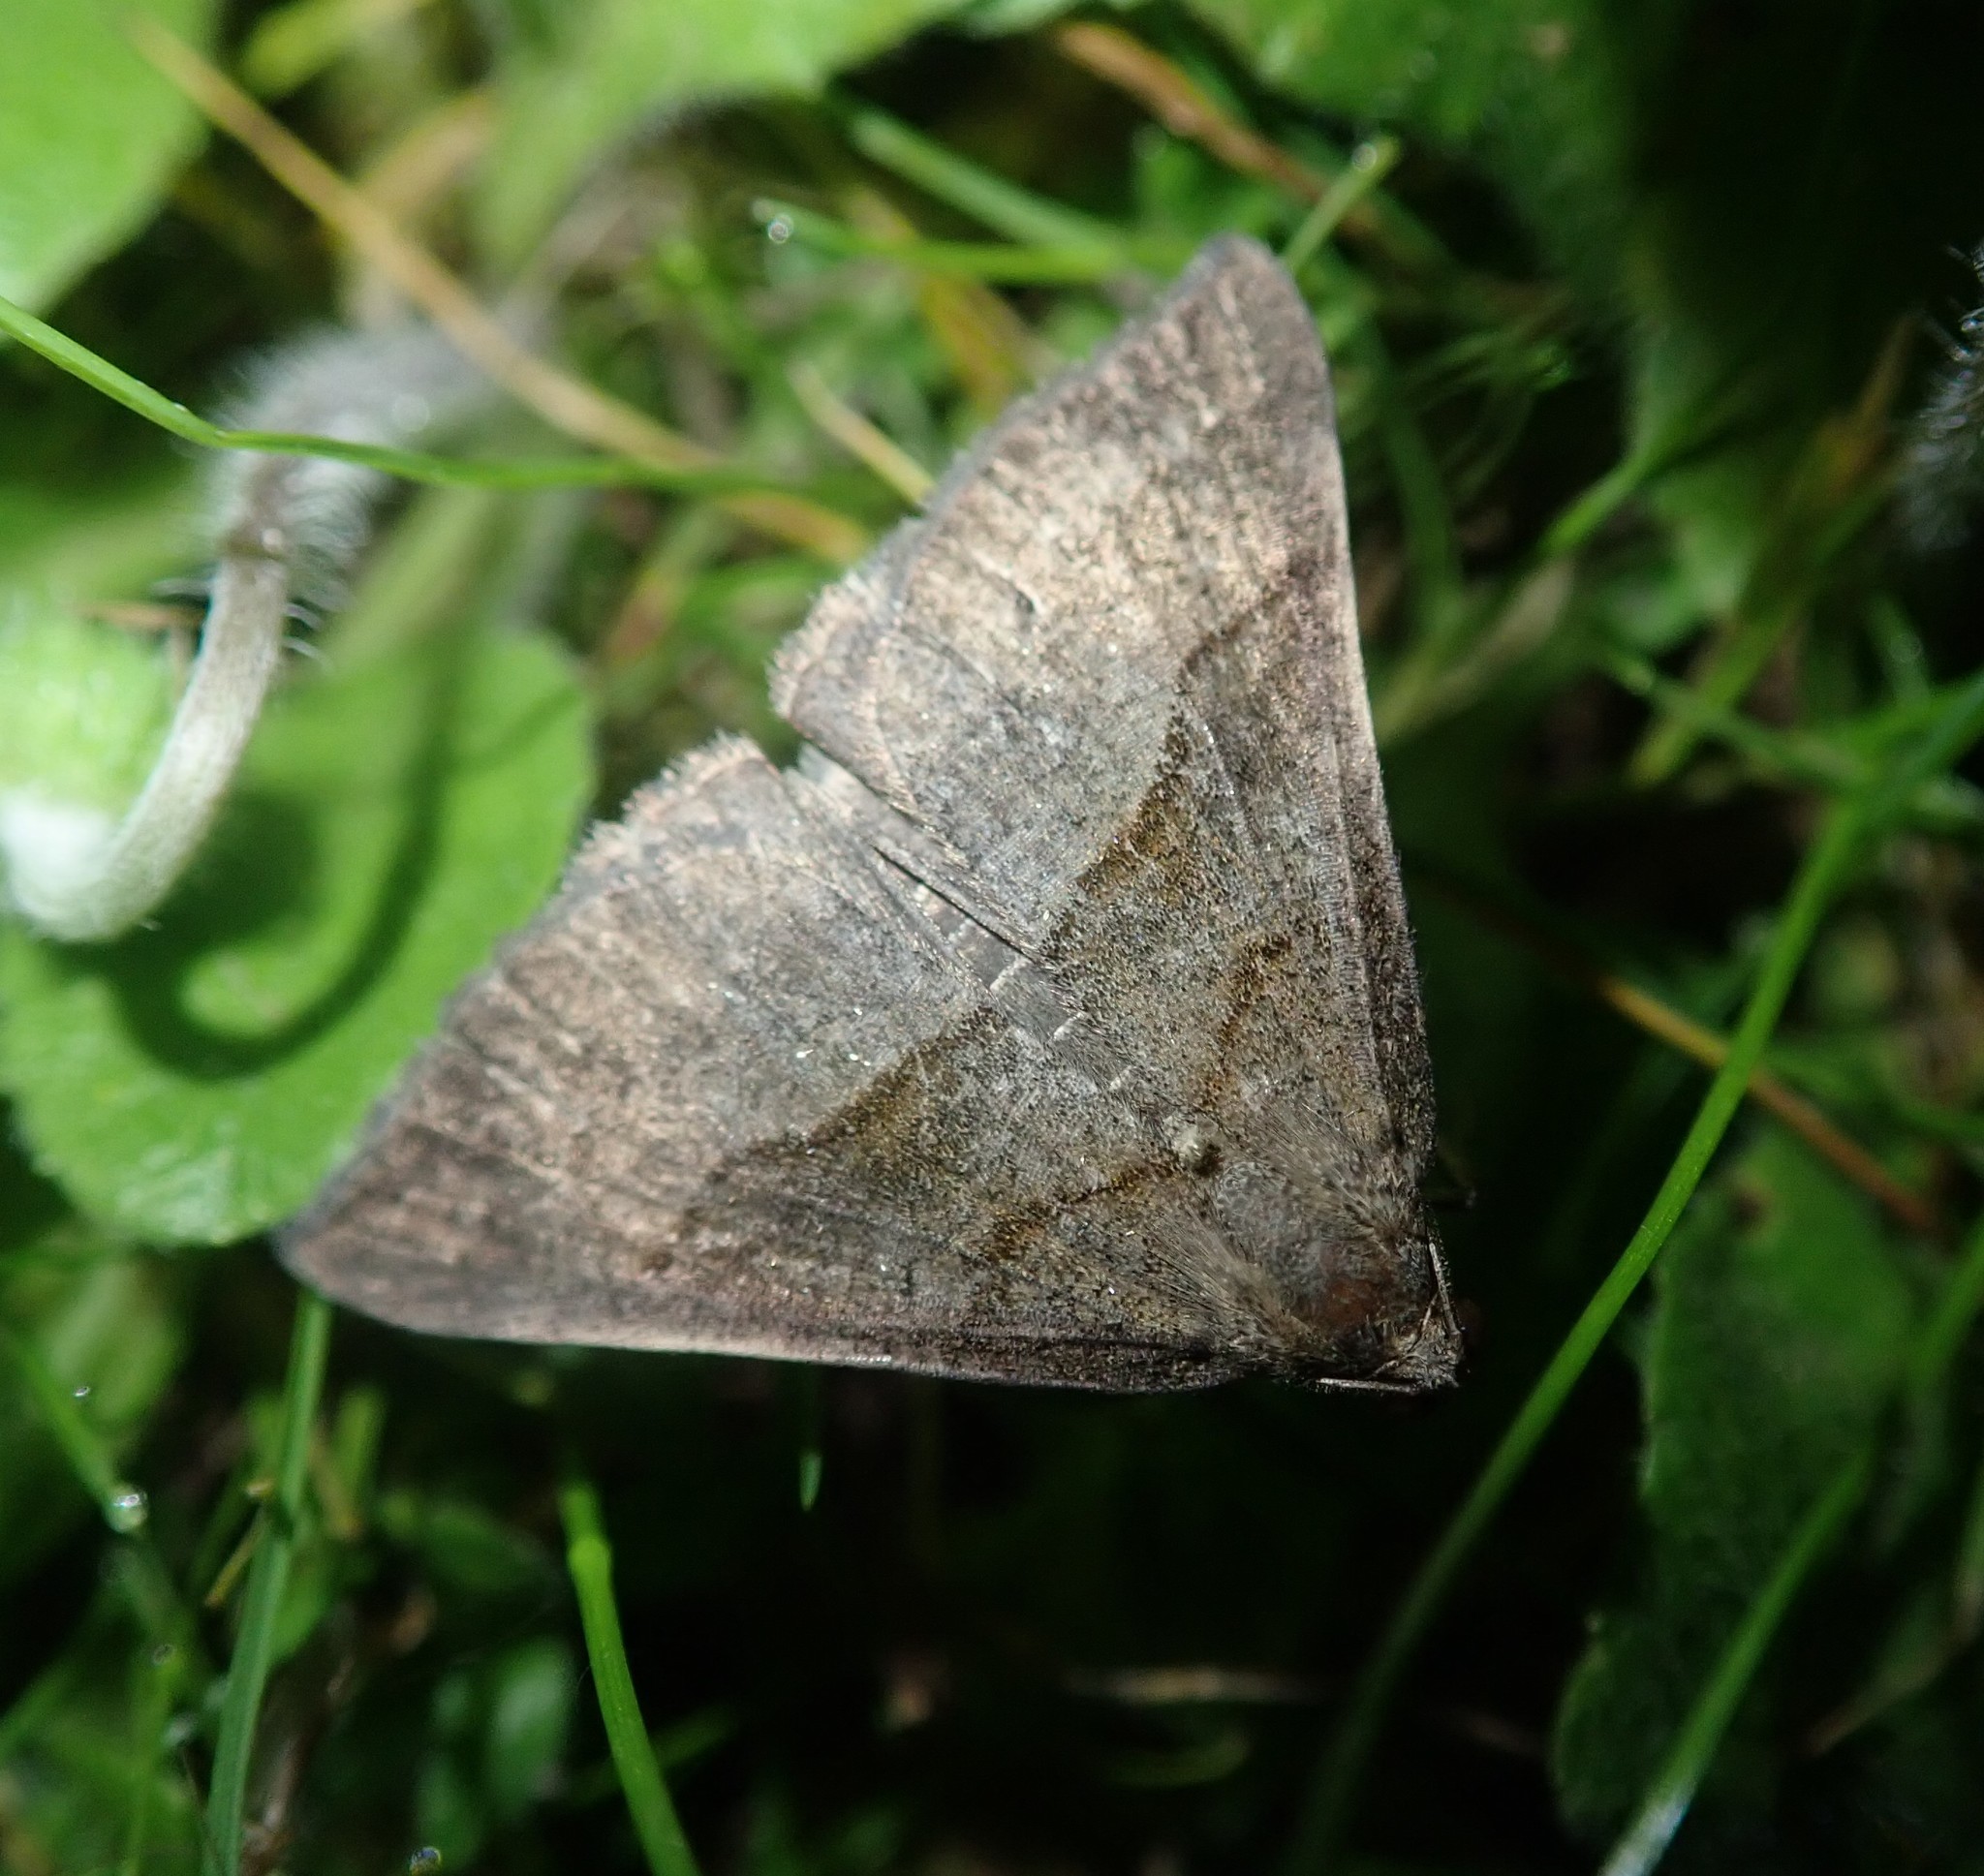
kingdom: Animalia
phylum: Arthropoda
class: Insecta
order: Lepidoptera
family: Erebidae
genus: Hypena
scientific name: Hypena proboscidalis
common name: Snout
